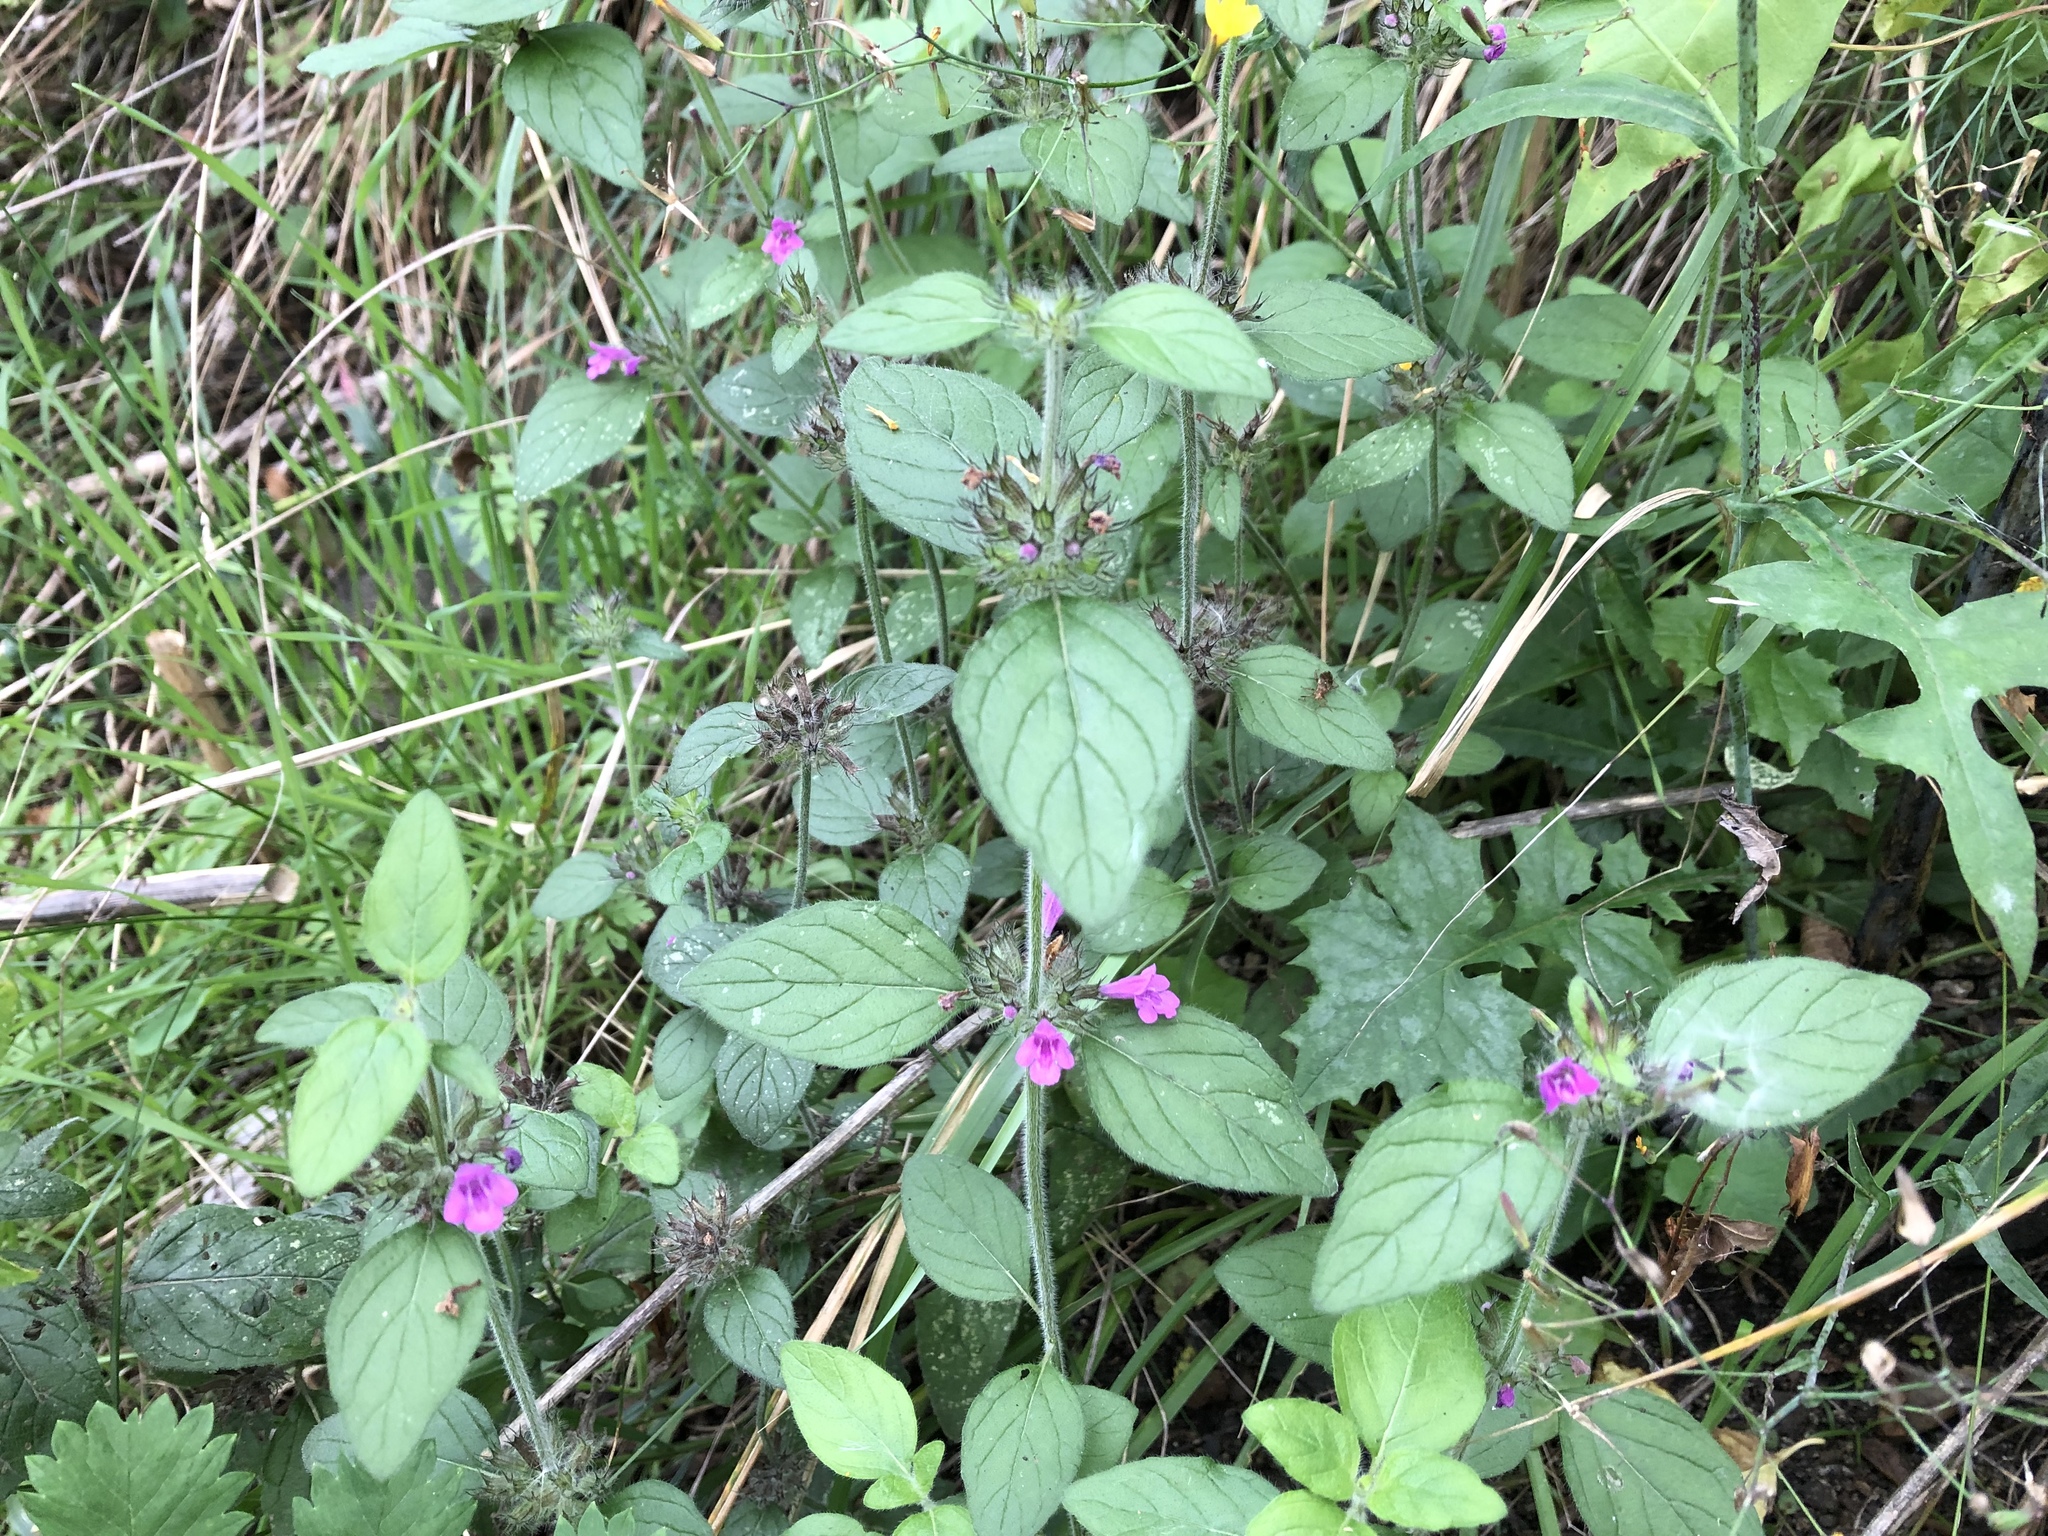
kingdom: Plantae
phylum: Tracheophyta
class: Magnoliopsida
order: Lamiales
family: Lamiaceae
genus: Clinopodium
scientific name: Clinopodium vulgare
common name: Wild basil
